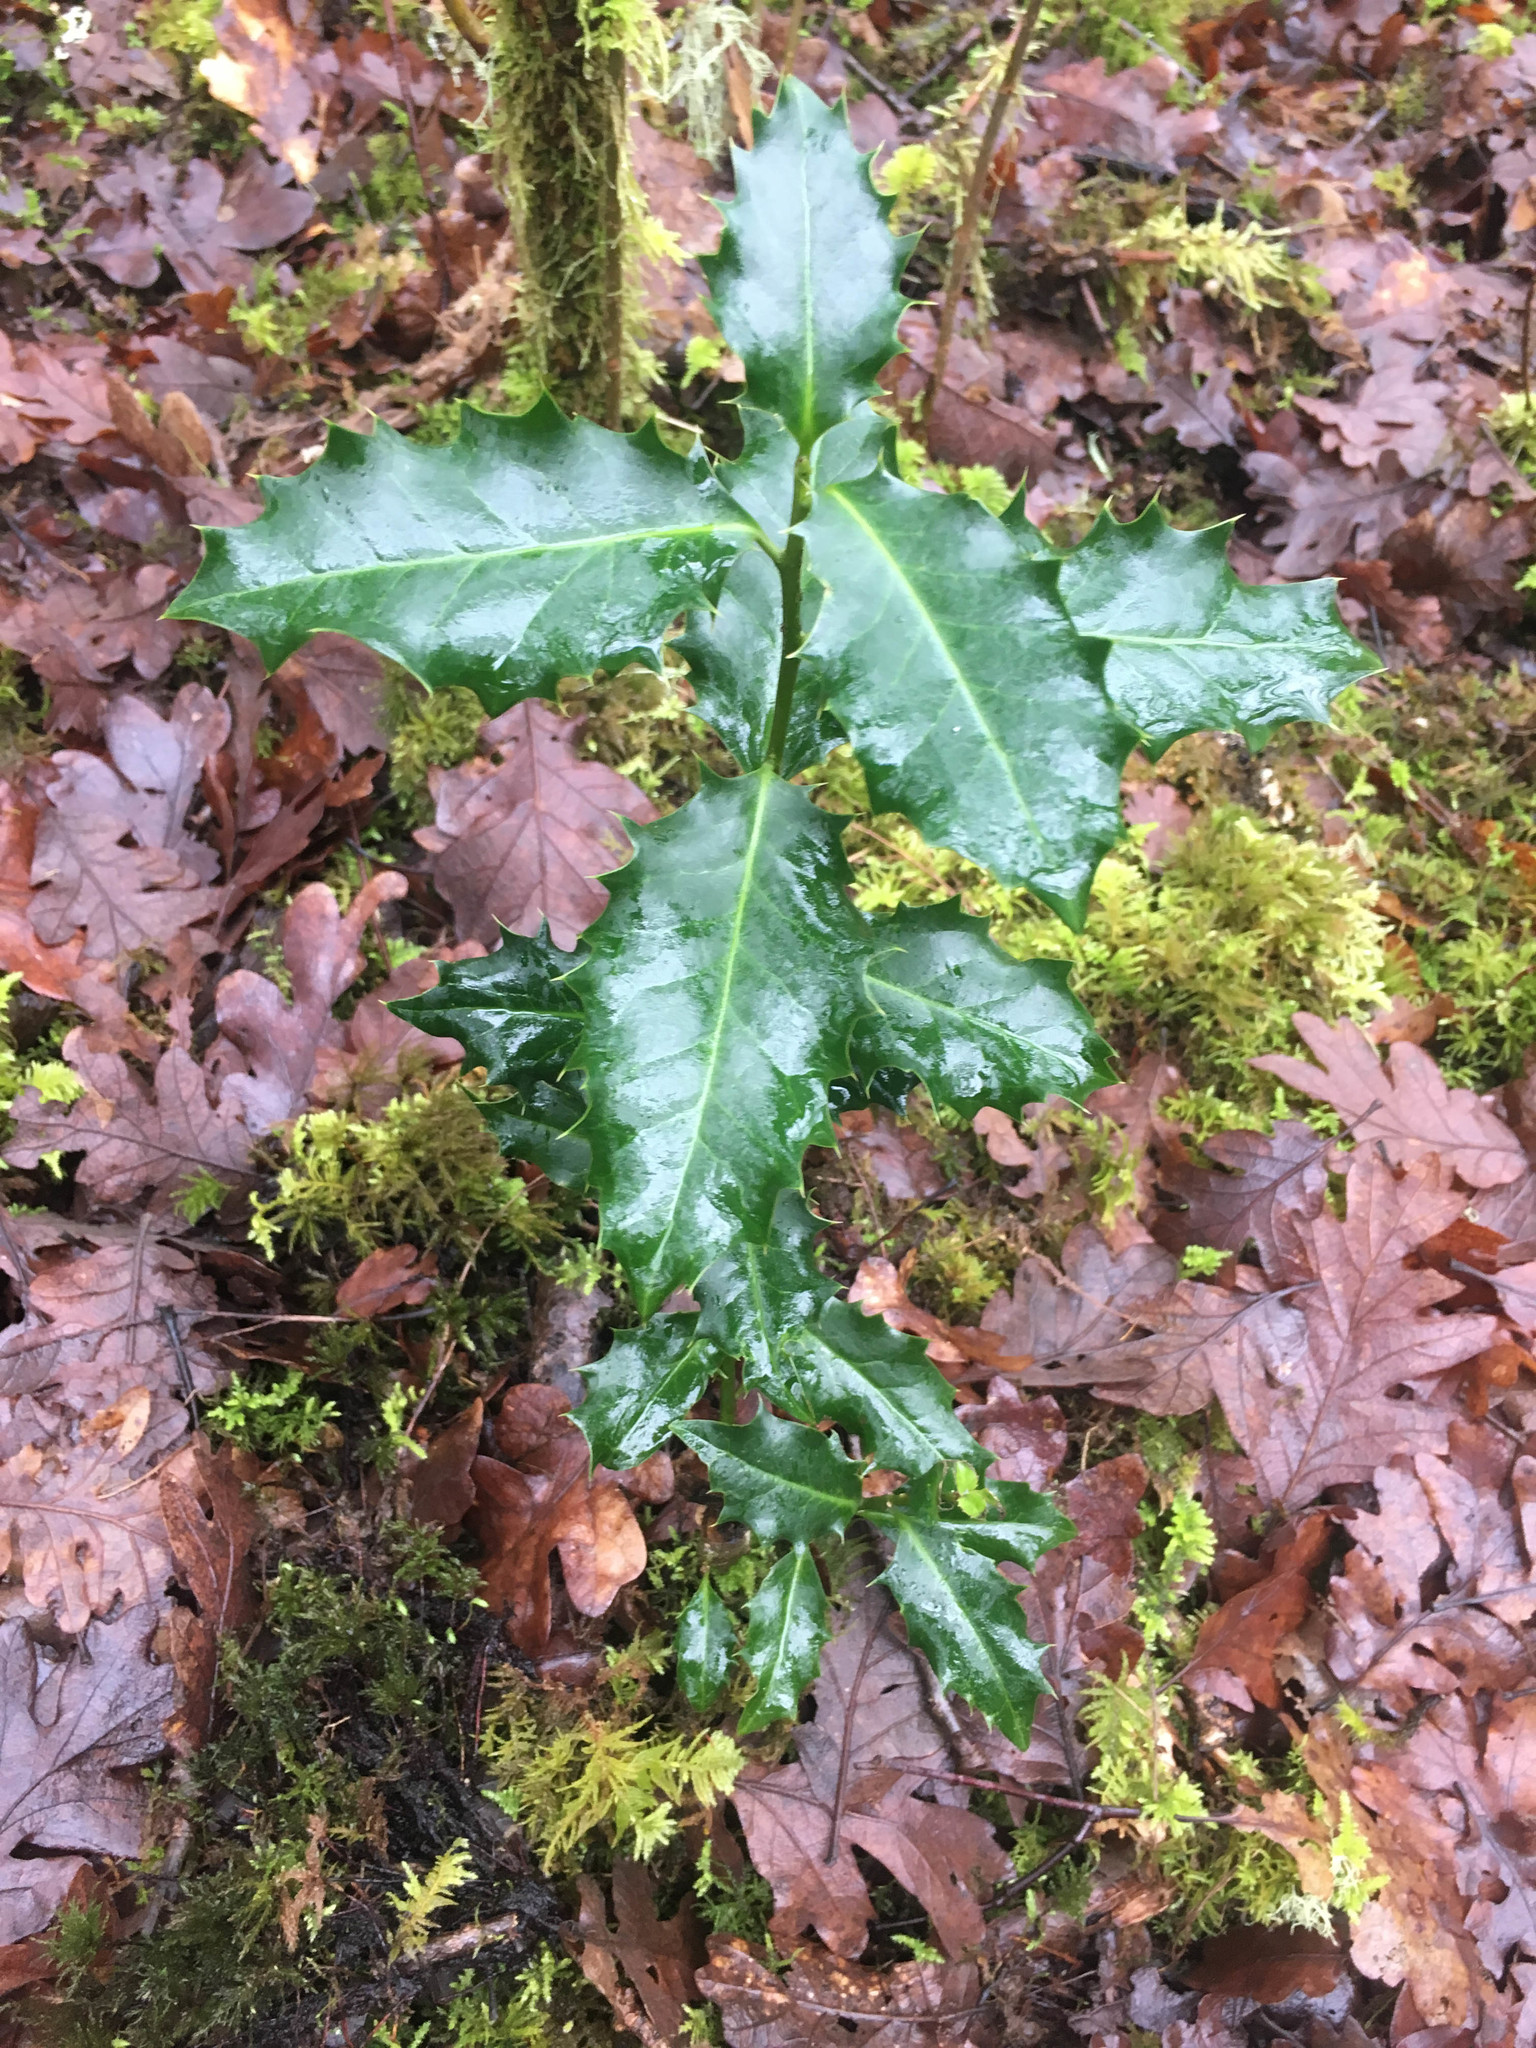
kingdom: Plantae
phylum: Tracheophyta
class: Magnoliopsida
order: Aquifoliales
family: Aquifoliaceae
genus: Ilex
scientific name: Ilex aquifolium
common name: English holly
